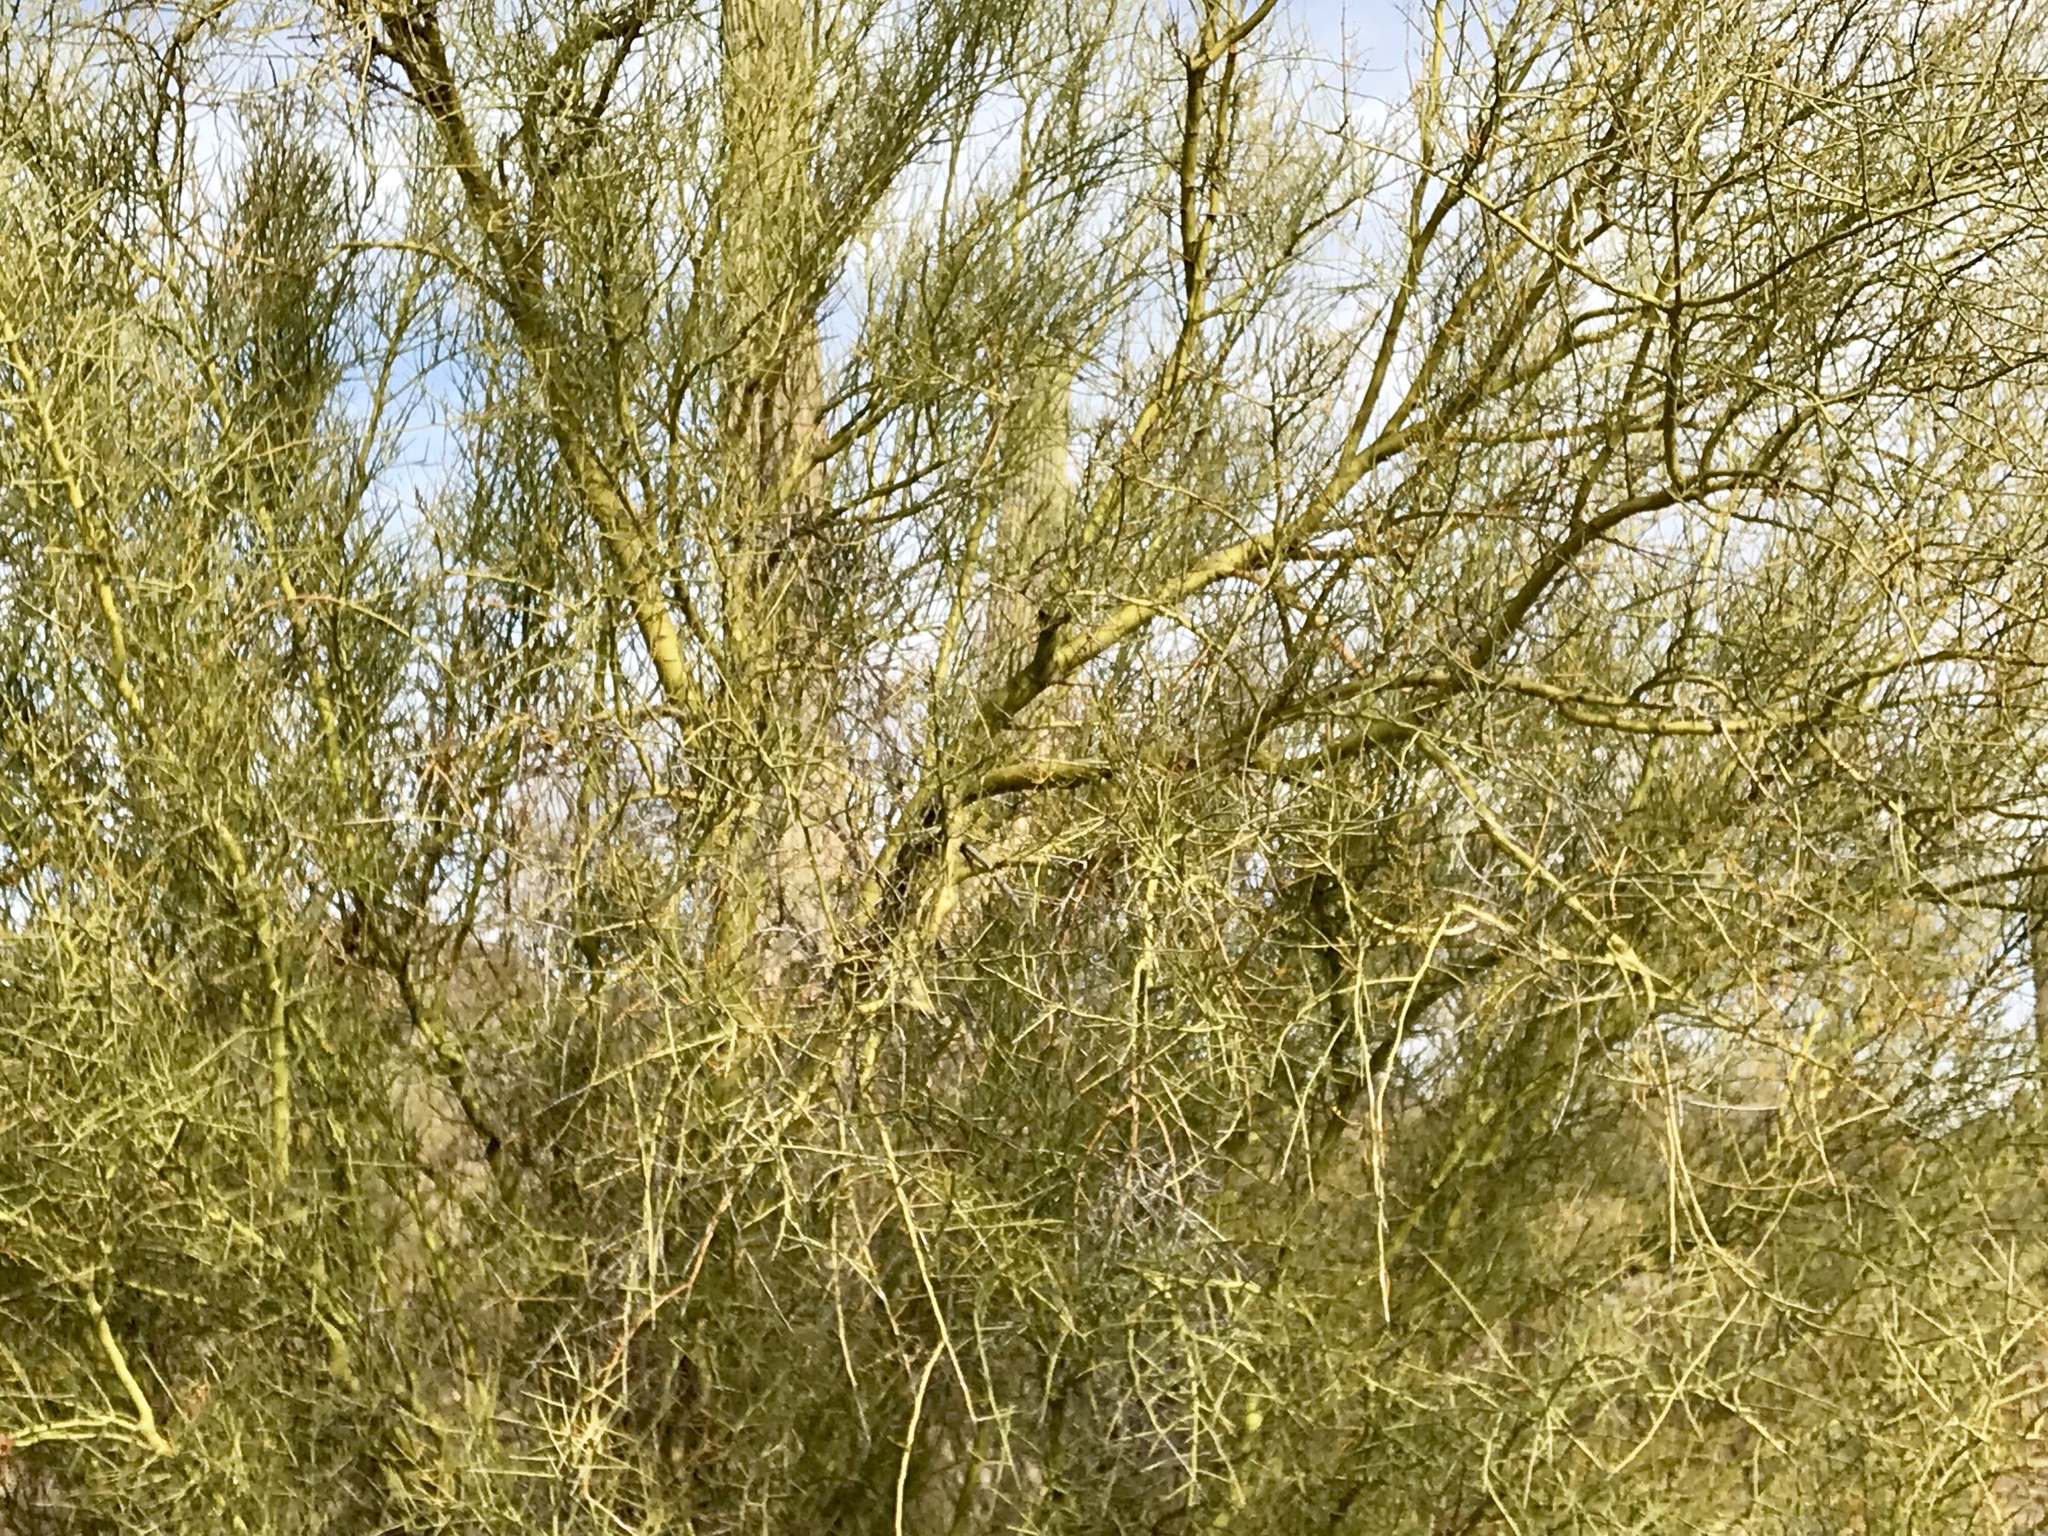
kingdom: Plantae
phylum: Tracheophyta
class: Magnoliopsida
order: Fabales
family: Fabaceae
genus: Parkinsonia
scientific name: Parkinsonia microphylla
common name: Yellow paloverde
